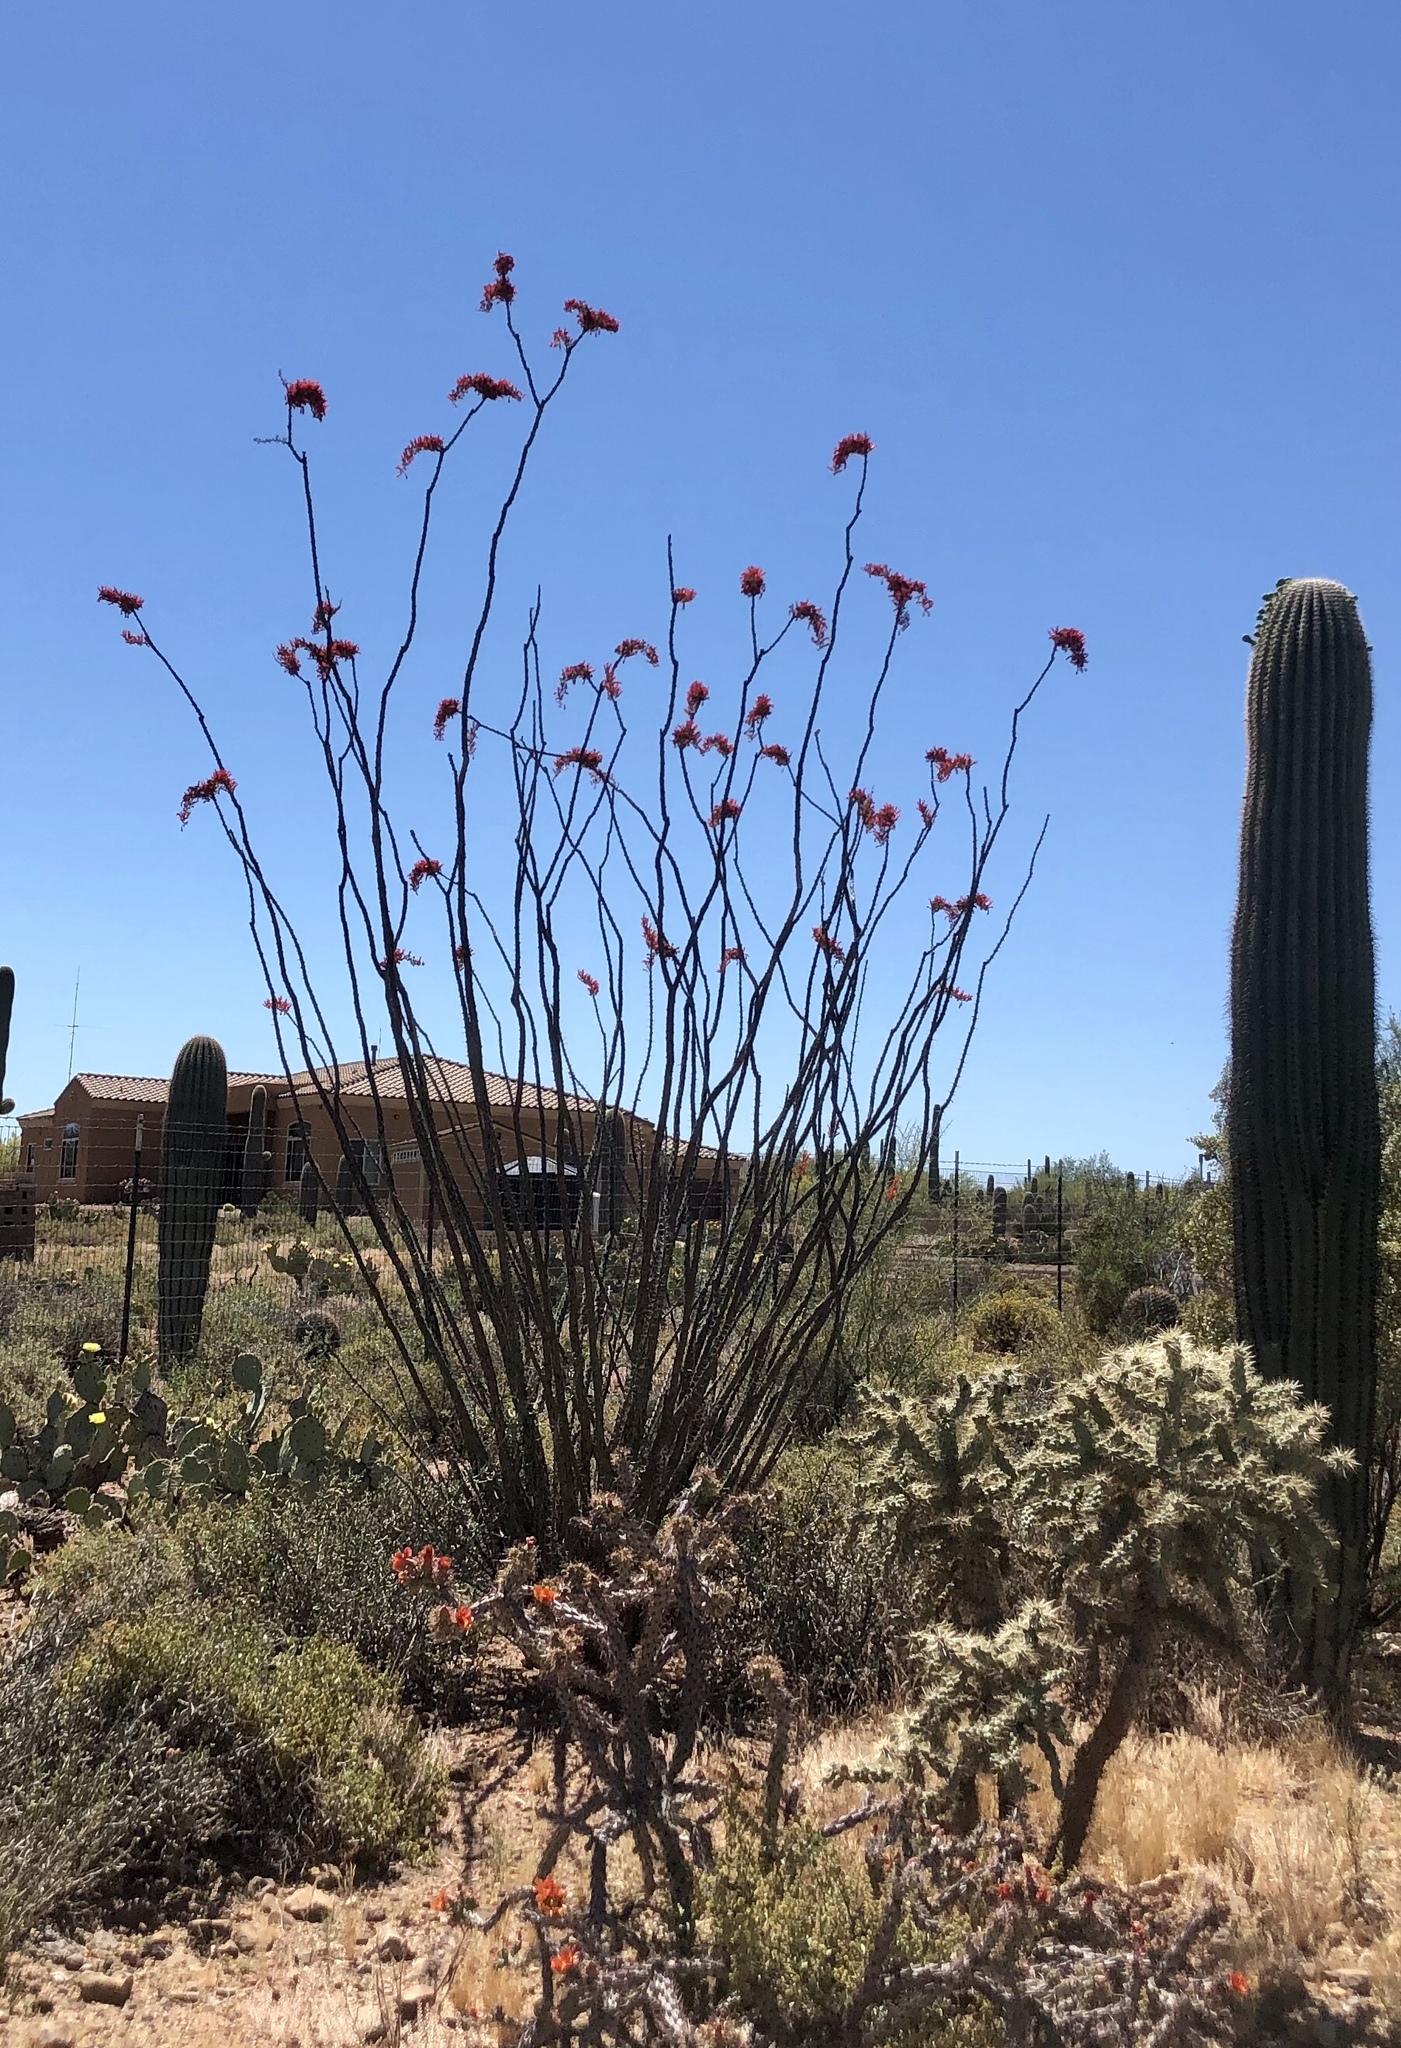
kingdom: Plantae
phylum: Tracheophyta
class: Magnoliopsida
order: Ericales
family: Fouquieriaceae
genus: Fouquieria
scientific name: Fouquieria splendens
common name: Vine-cactus
